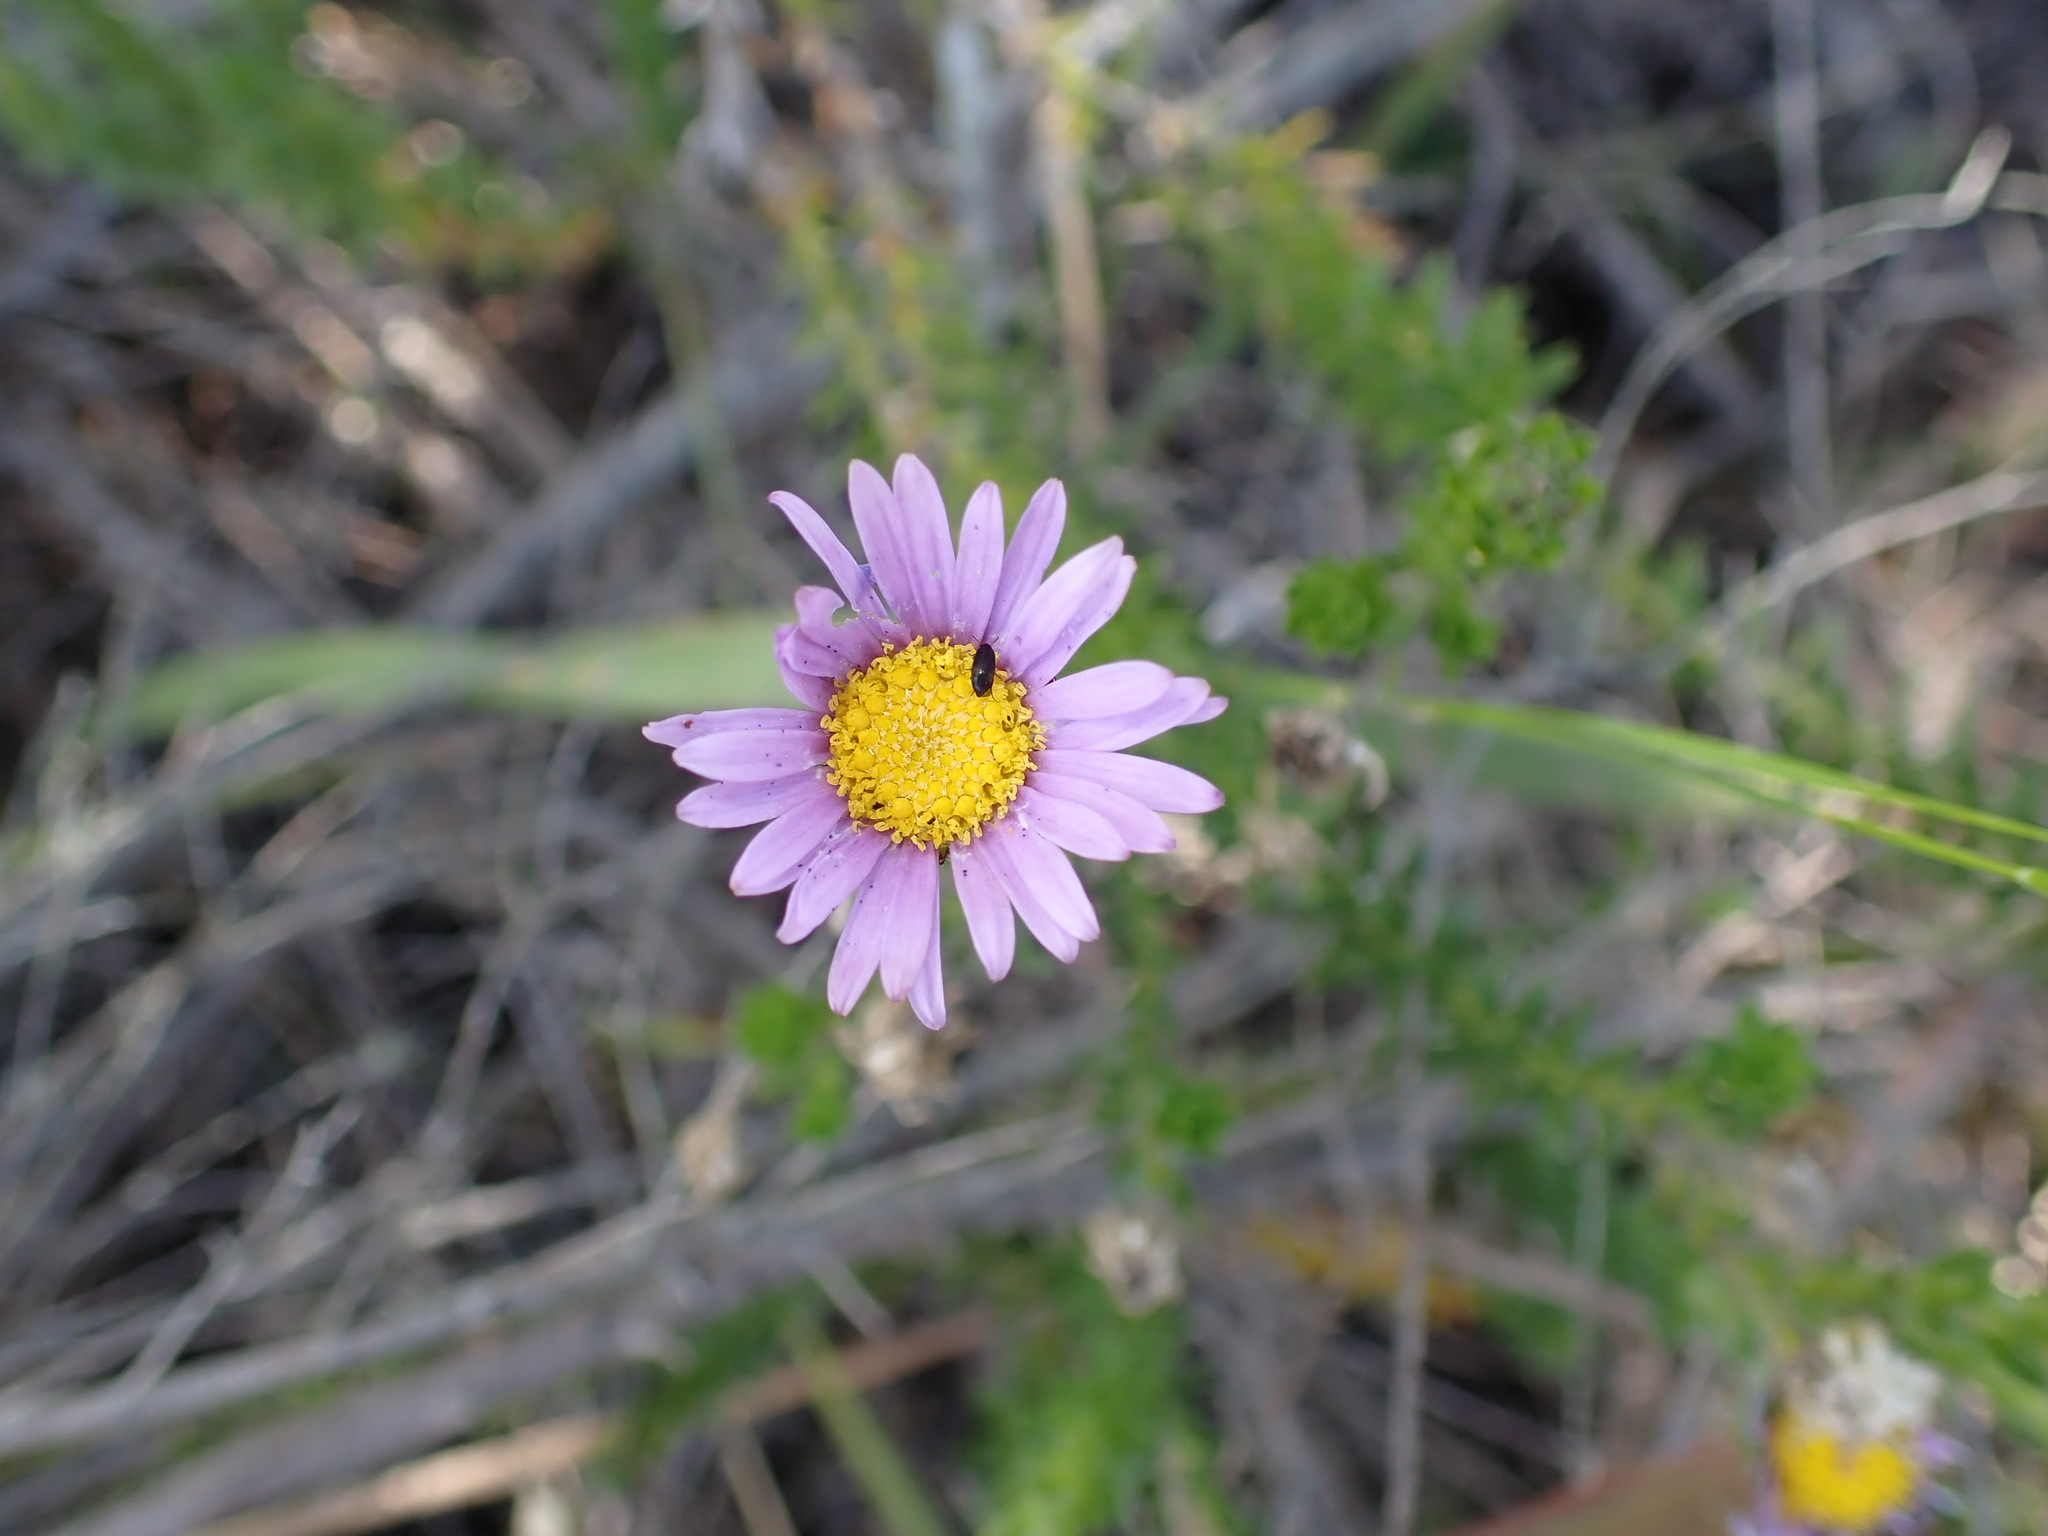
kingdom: Plantae
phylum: Tracheophyta
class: Magnoliopsida
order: Asterales
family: Asteraceae
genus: Felicia
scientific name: Felicia echinata
